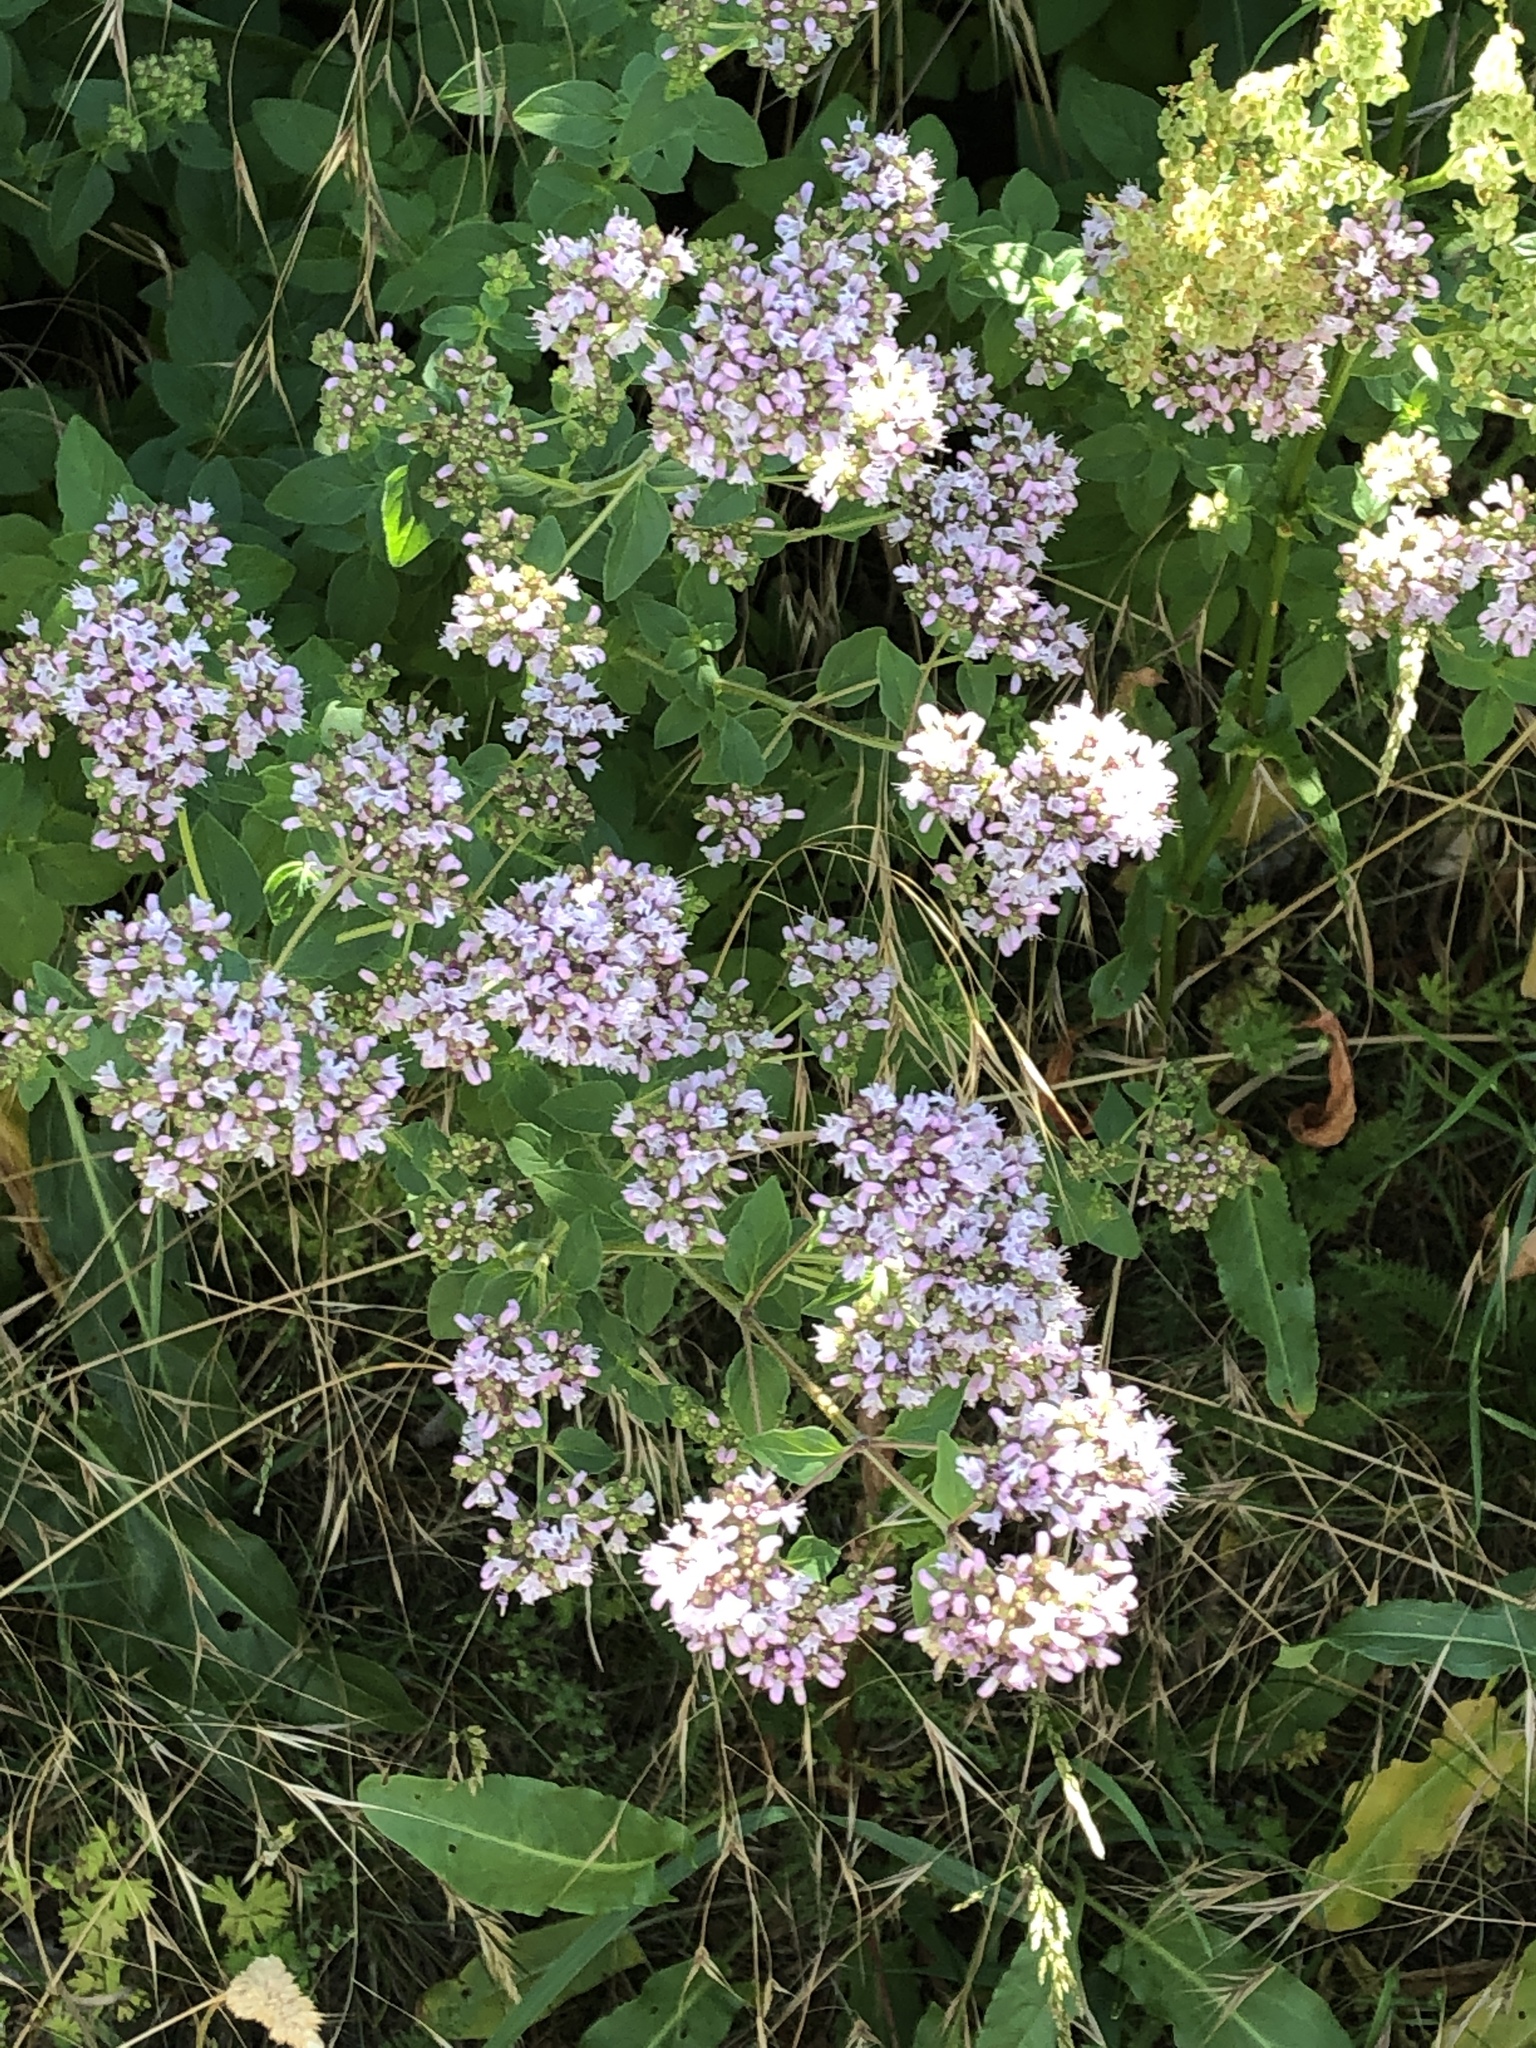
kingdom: Plantae
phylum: Tracheophyta
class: Magnoliopsida
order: Lamiales
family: Lamiaceae
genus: Origanum
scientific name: Origanum vulgare
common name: Wild marjoram
